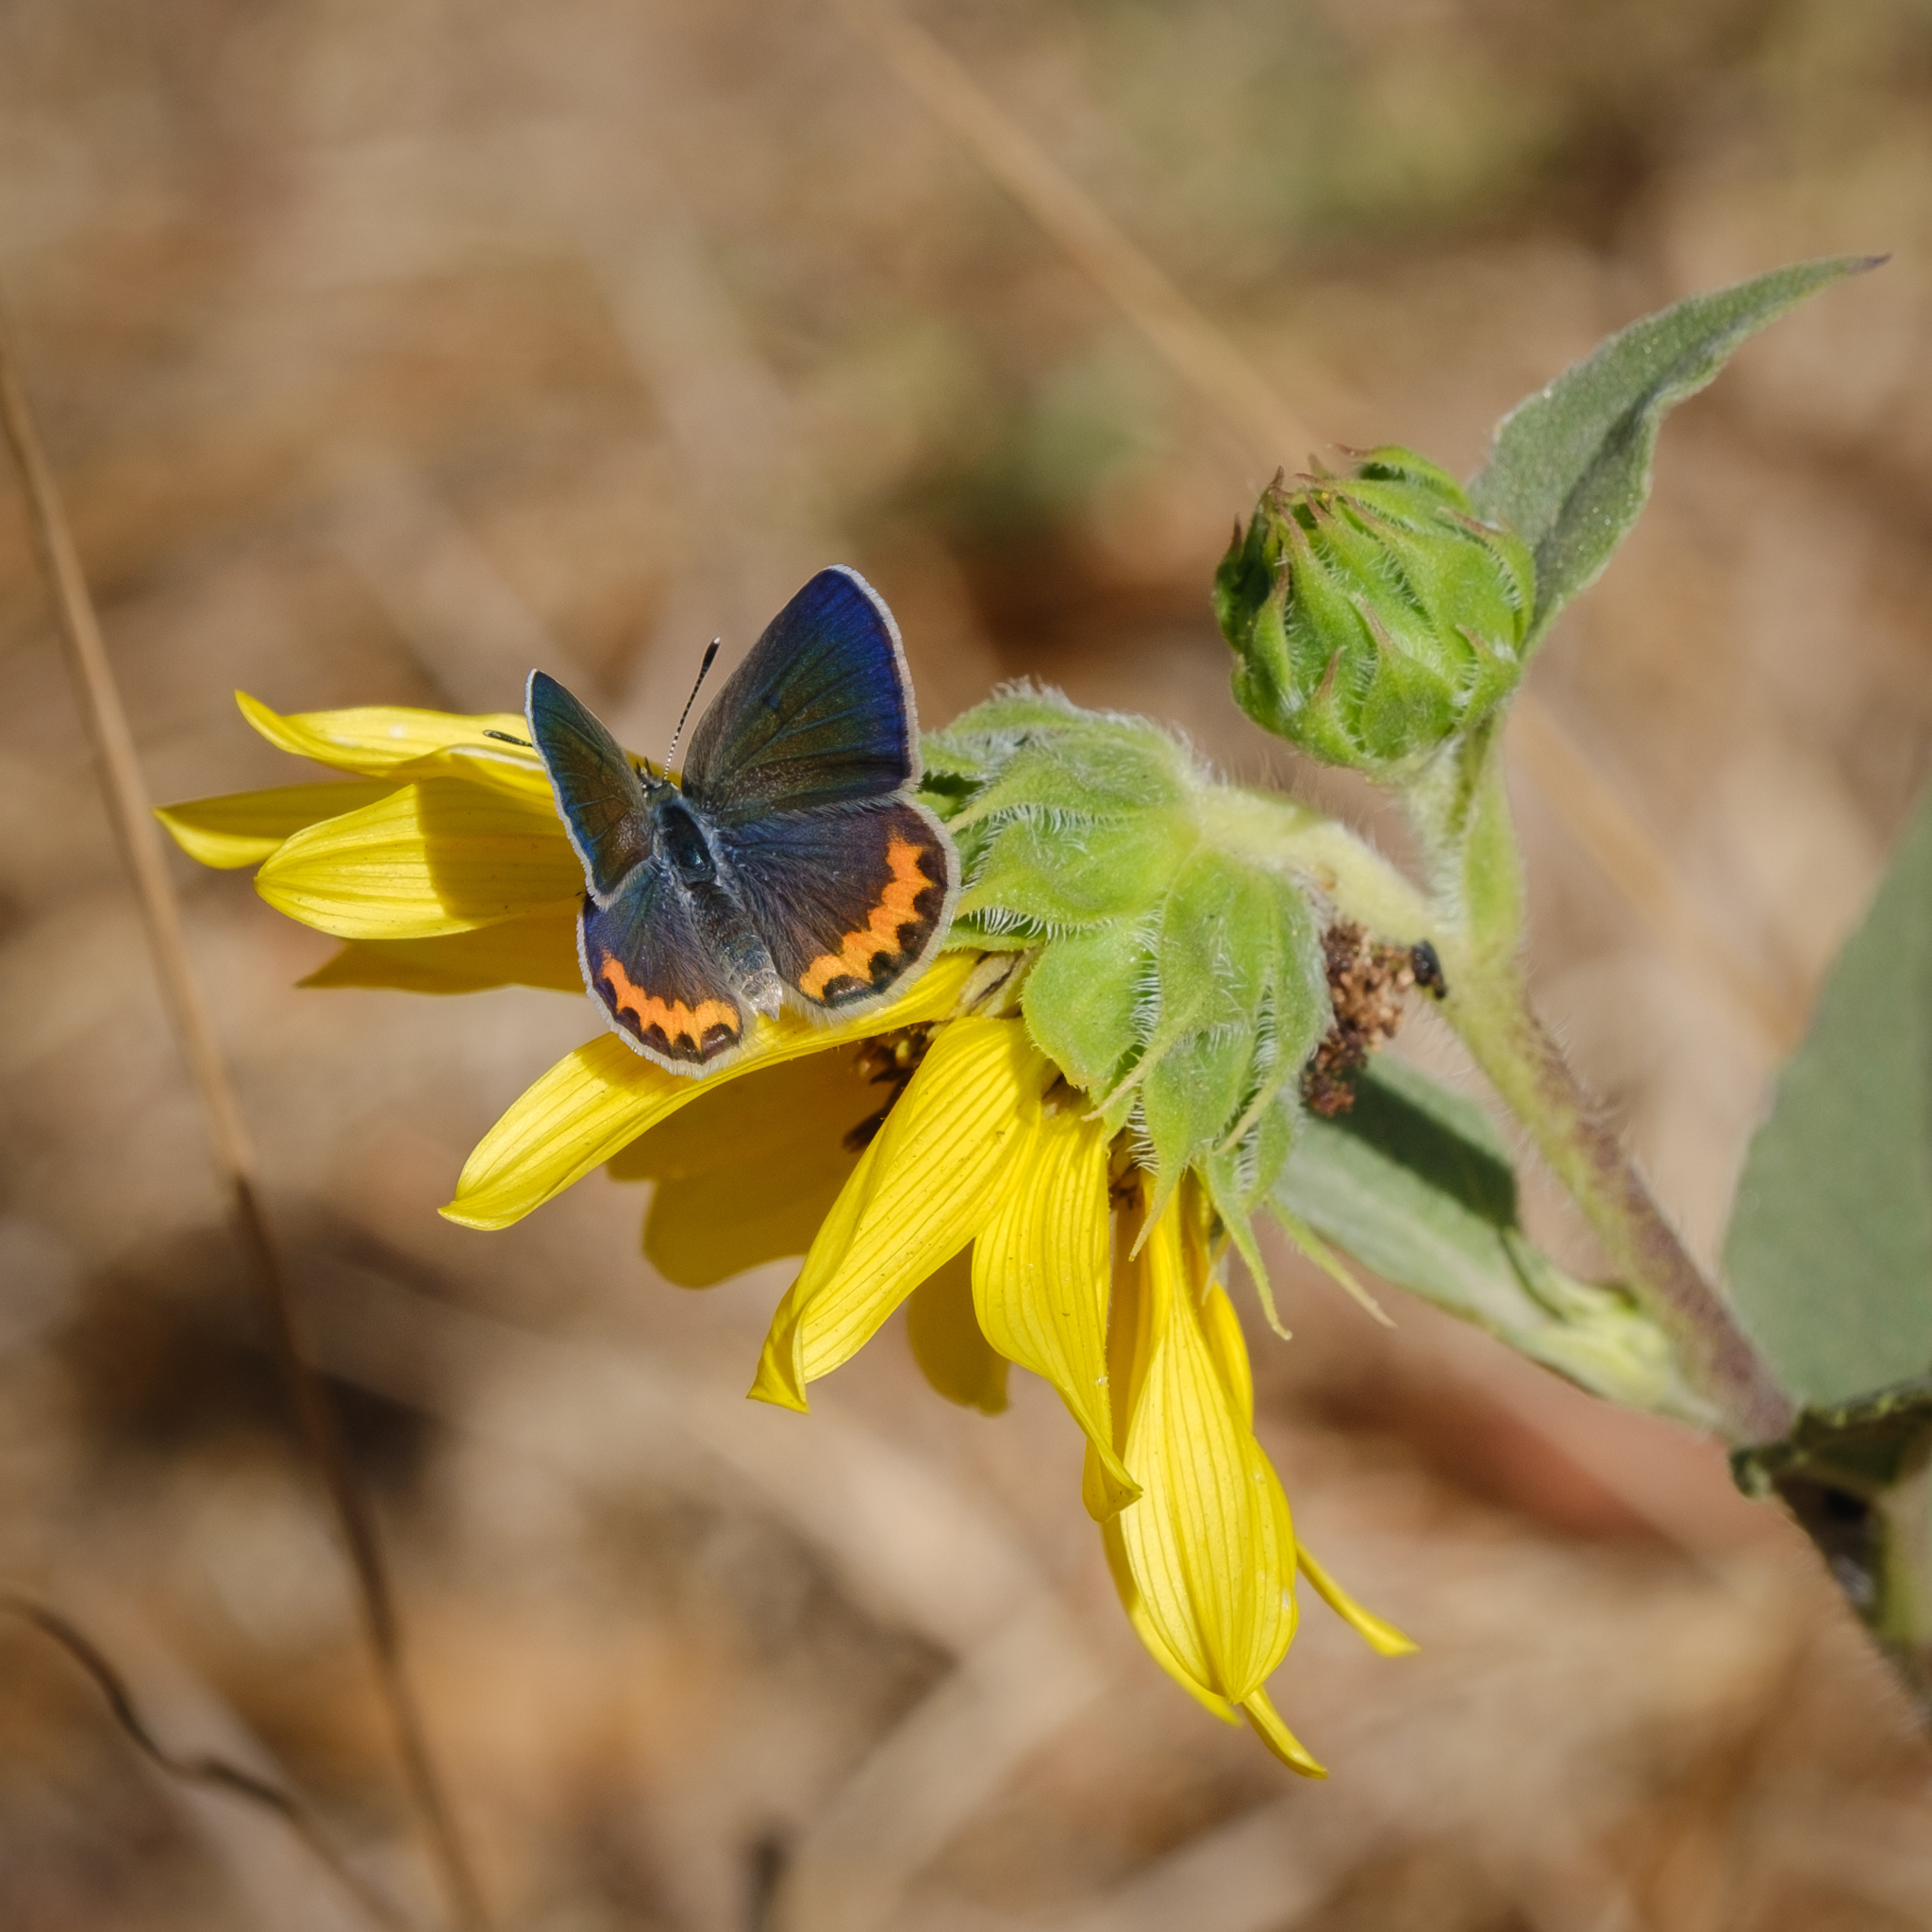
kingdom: Animalia
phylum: Arthropoda
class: Insecta
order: Lepidoptera
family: Lycaenidae
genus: Icaricia
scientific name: Icaricia acmon
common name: Acmon blue
